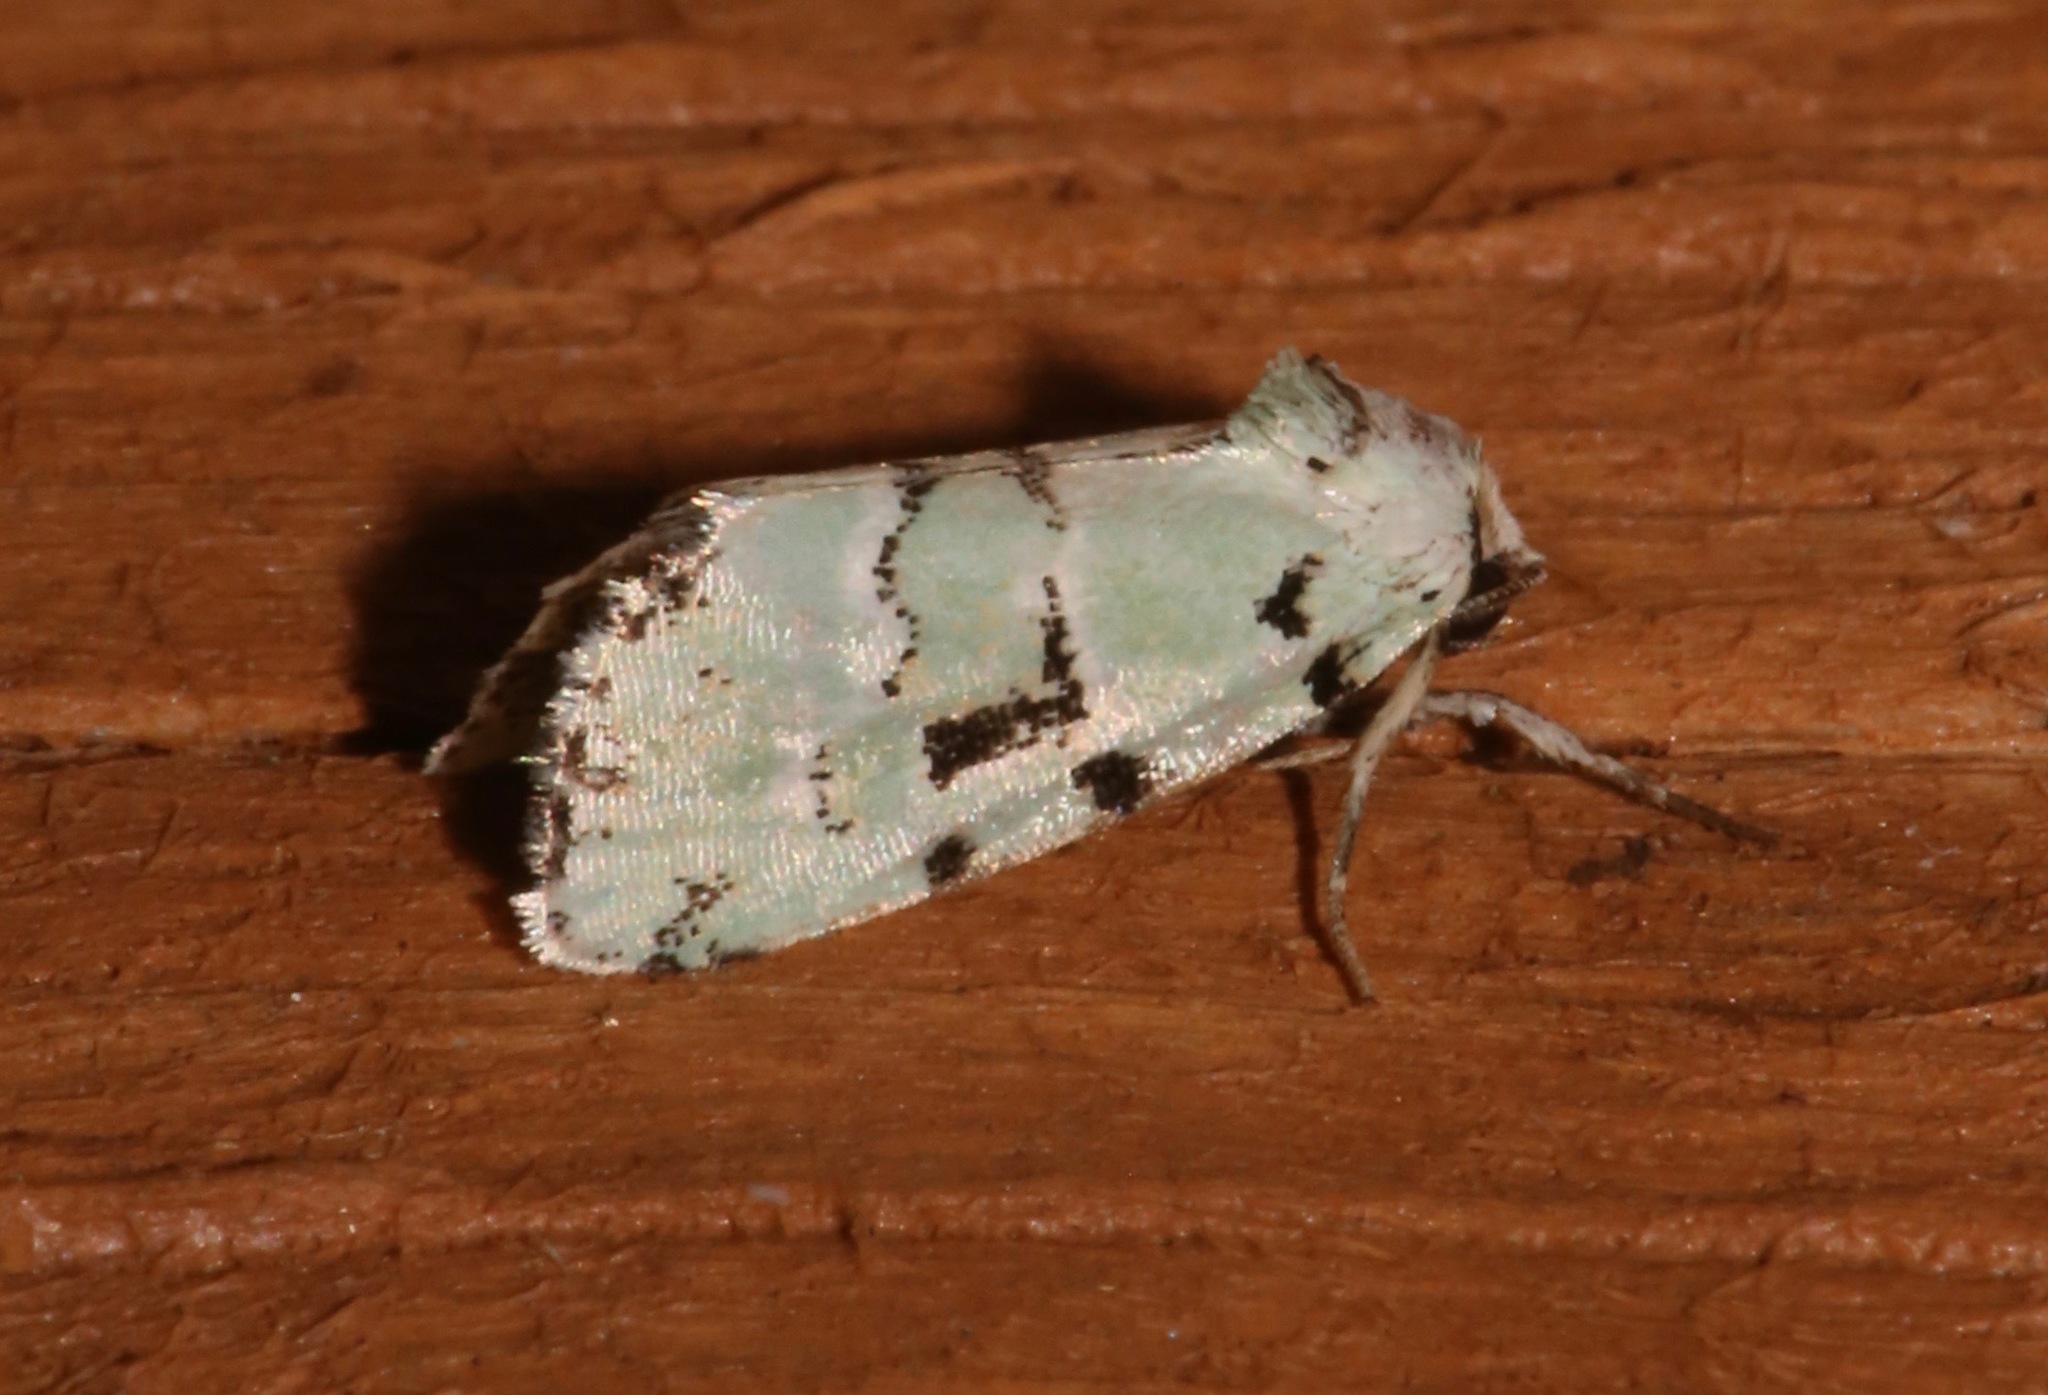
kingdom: Animalia
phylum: Arthropoda
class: Insecta
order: Lepidoptera
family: Noctuidae
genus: Elaphria
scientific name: Elaphria cyanympha
